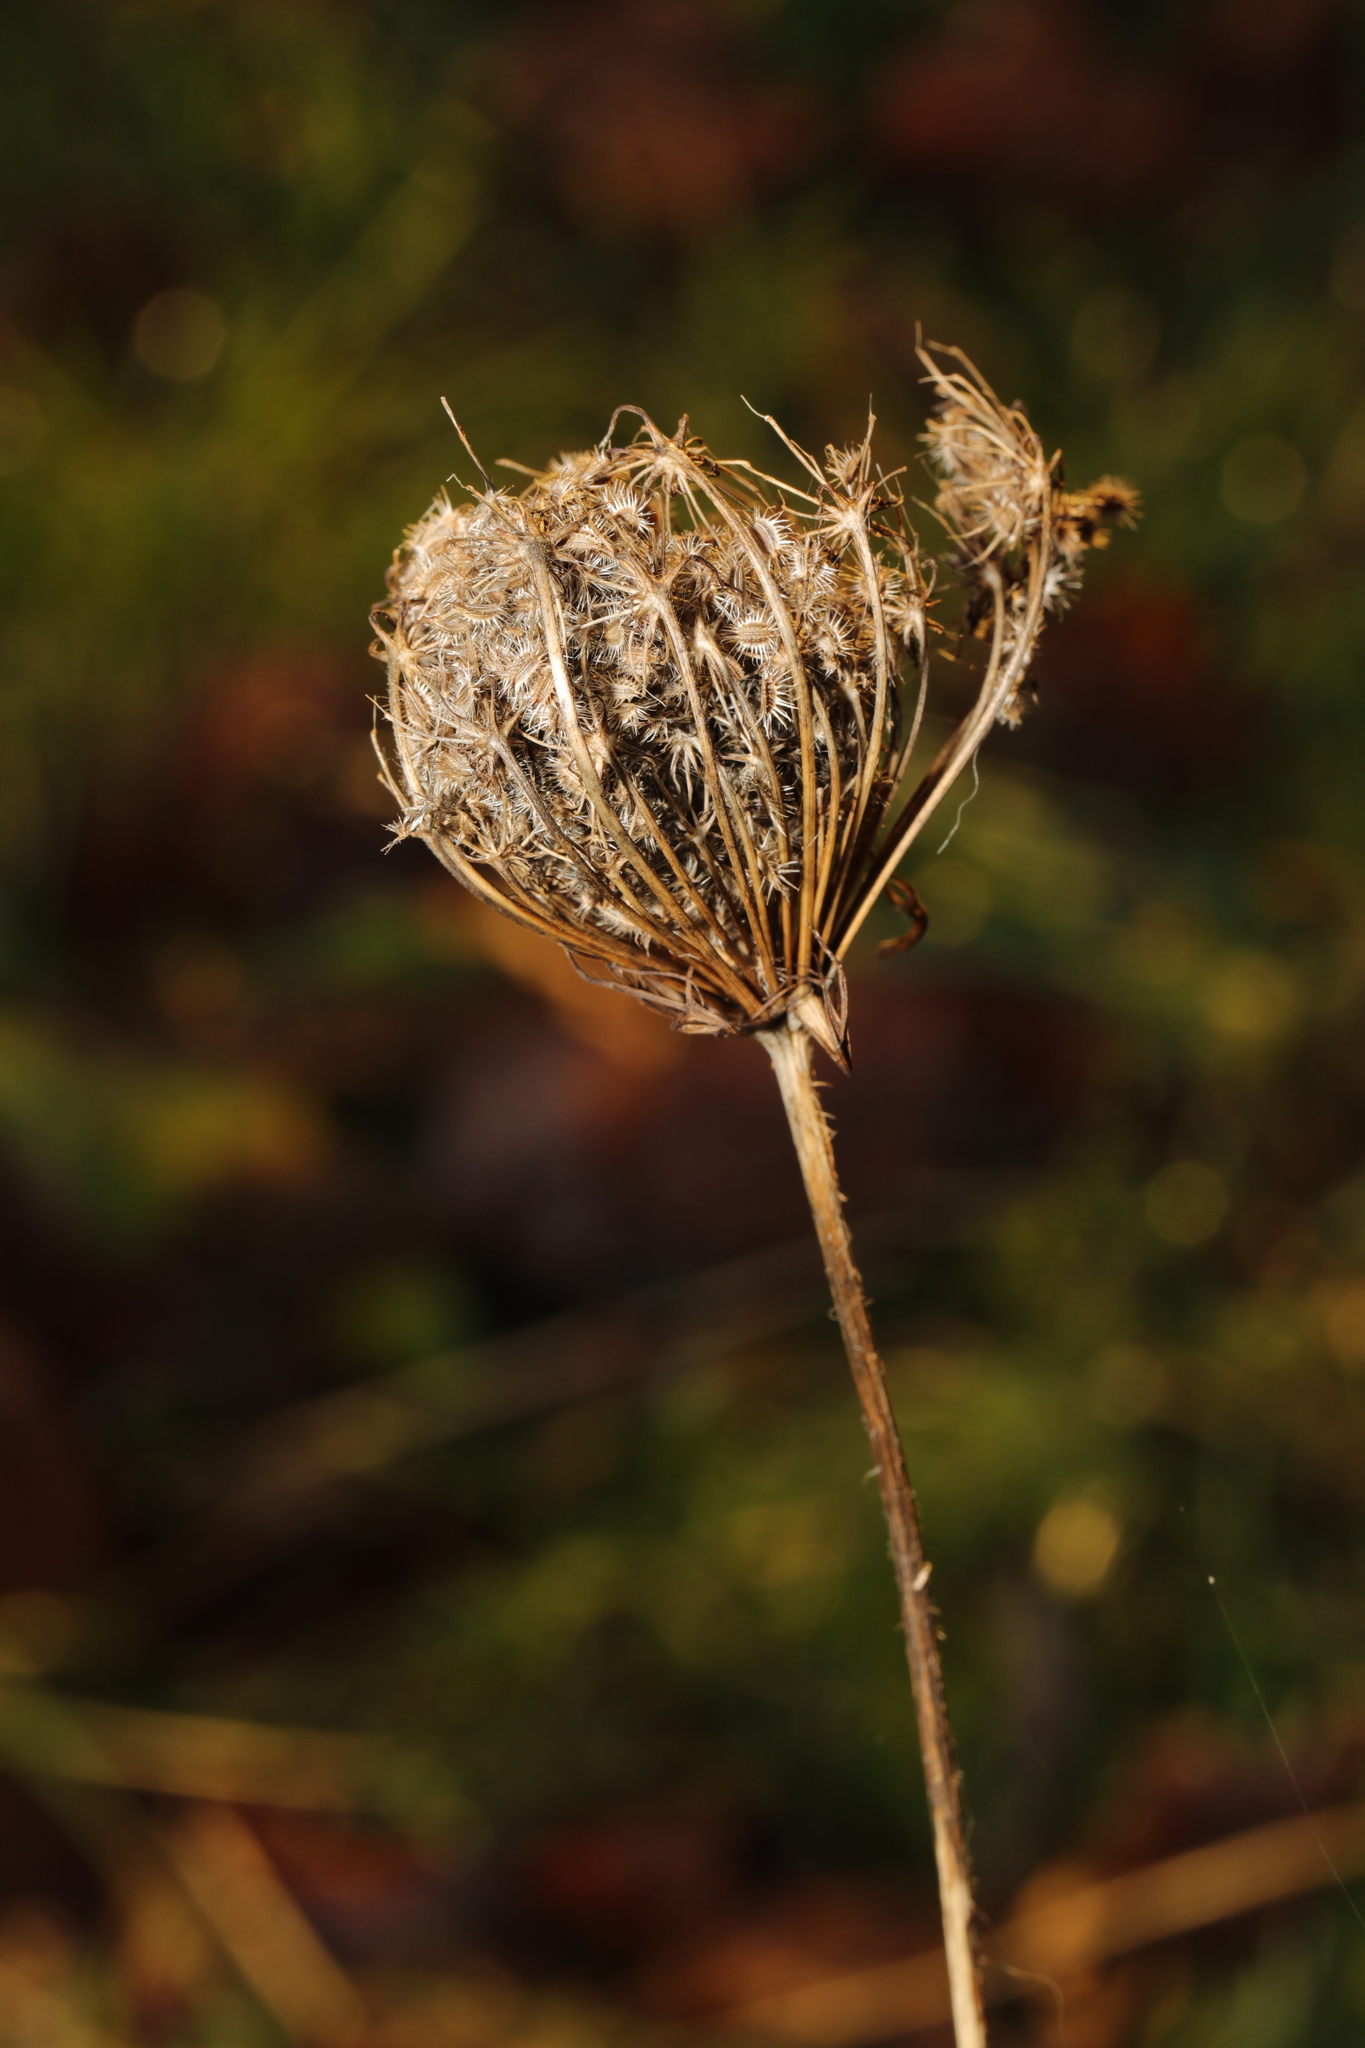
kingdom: Plantae
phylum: Tracheophyta
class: Magnoliopsida
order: Apiales
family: Apiaceae
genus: Daucus
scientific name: Daucus carota
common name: Wild carrot
